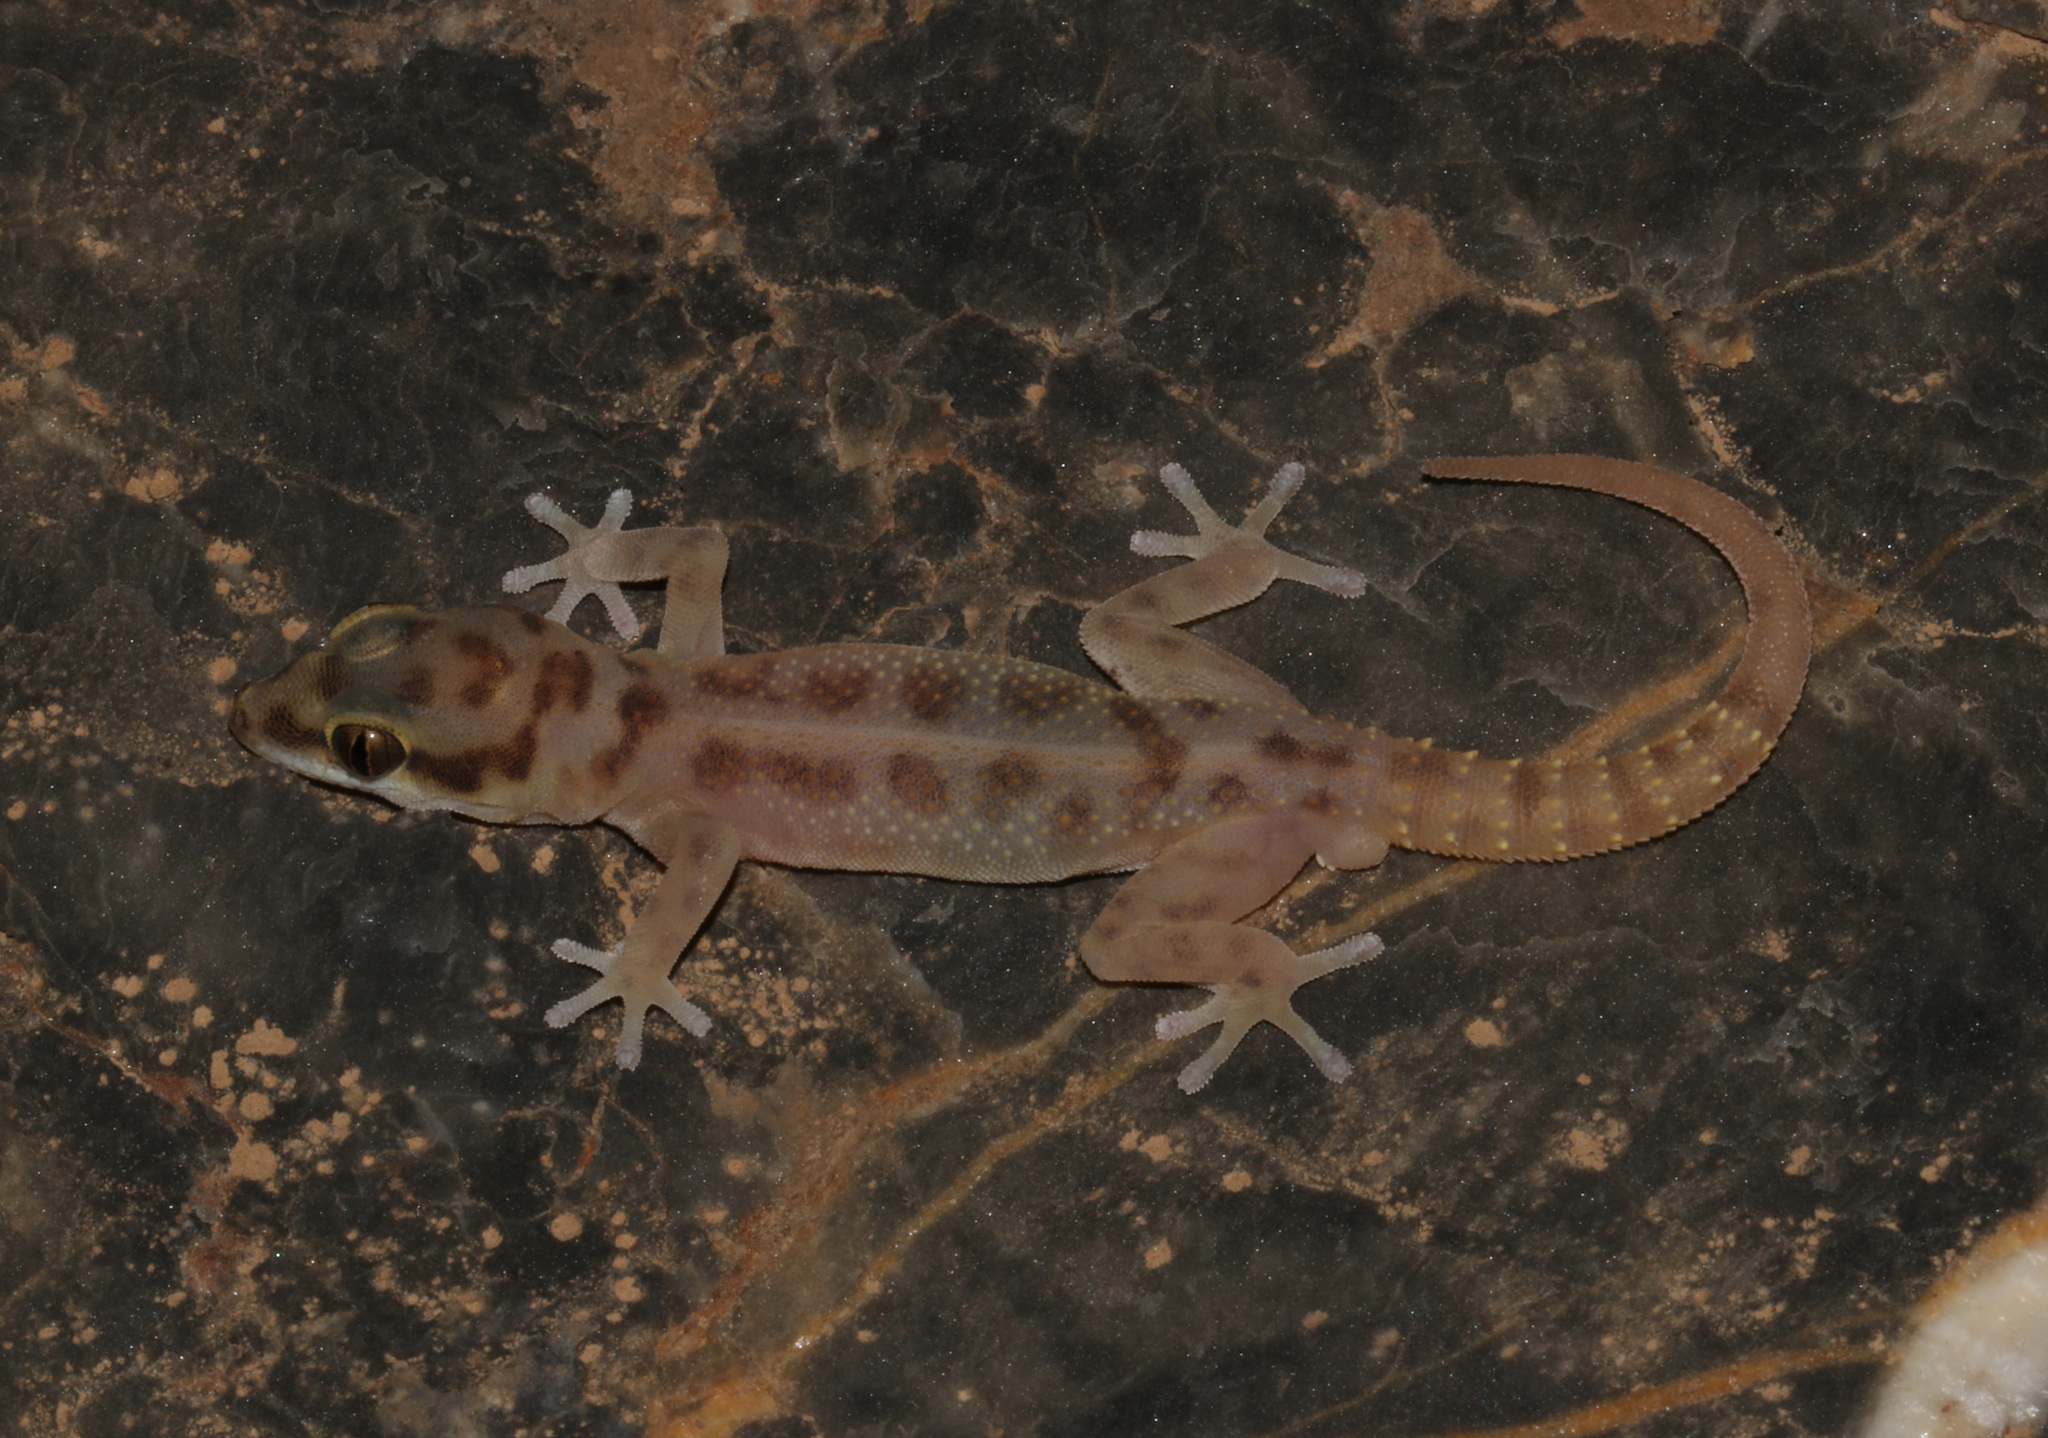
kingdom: Animalia
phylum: Chordata
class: Squamata
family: Gekkonidae
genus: Pachydactylus
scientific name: Pachydactylus carinatus
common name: Richtersveld gecko
